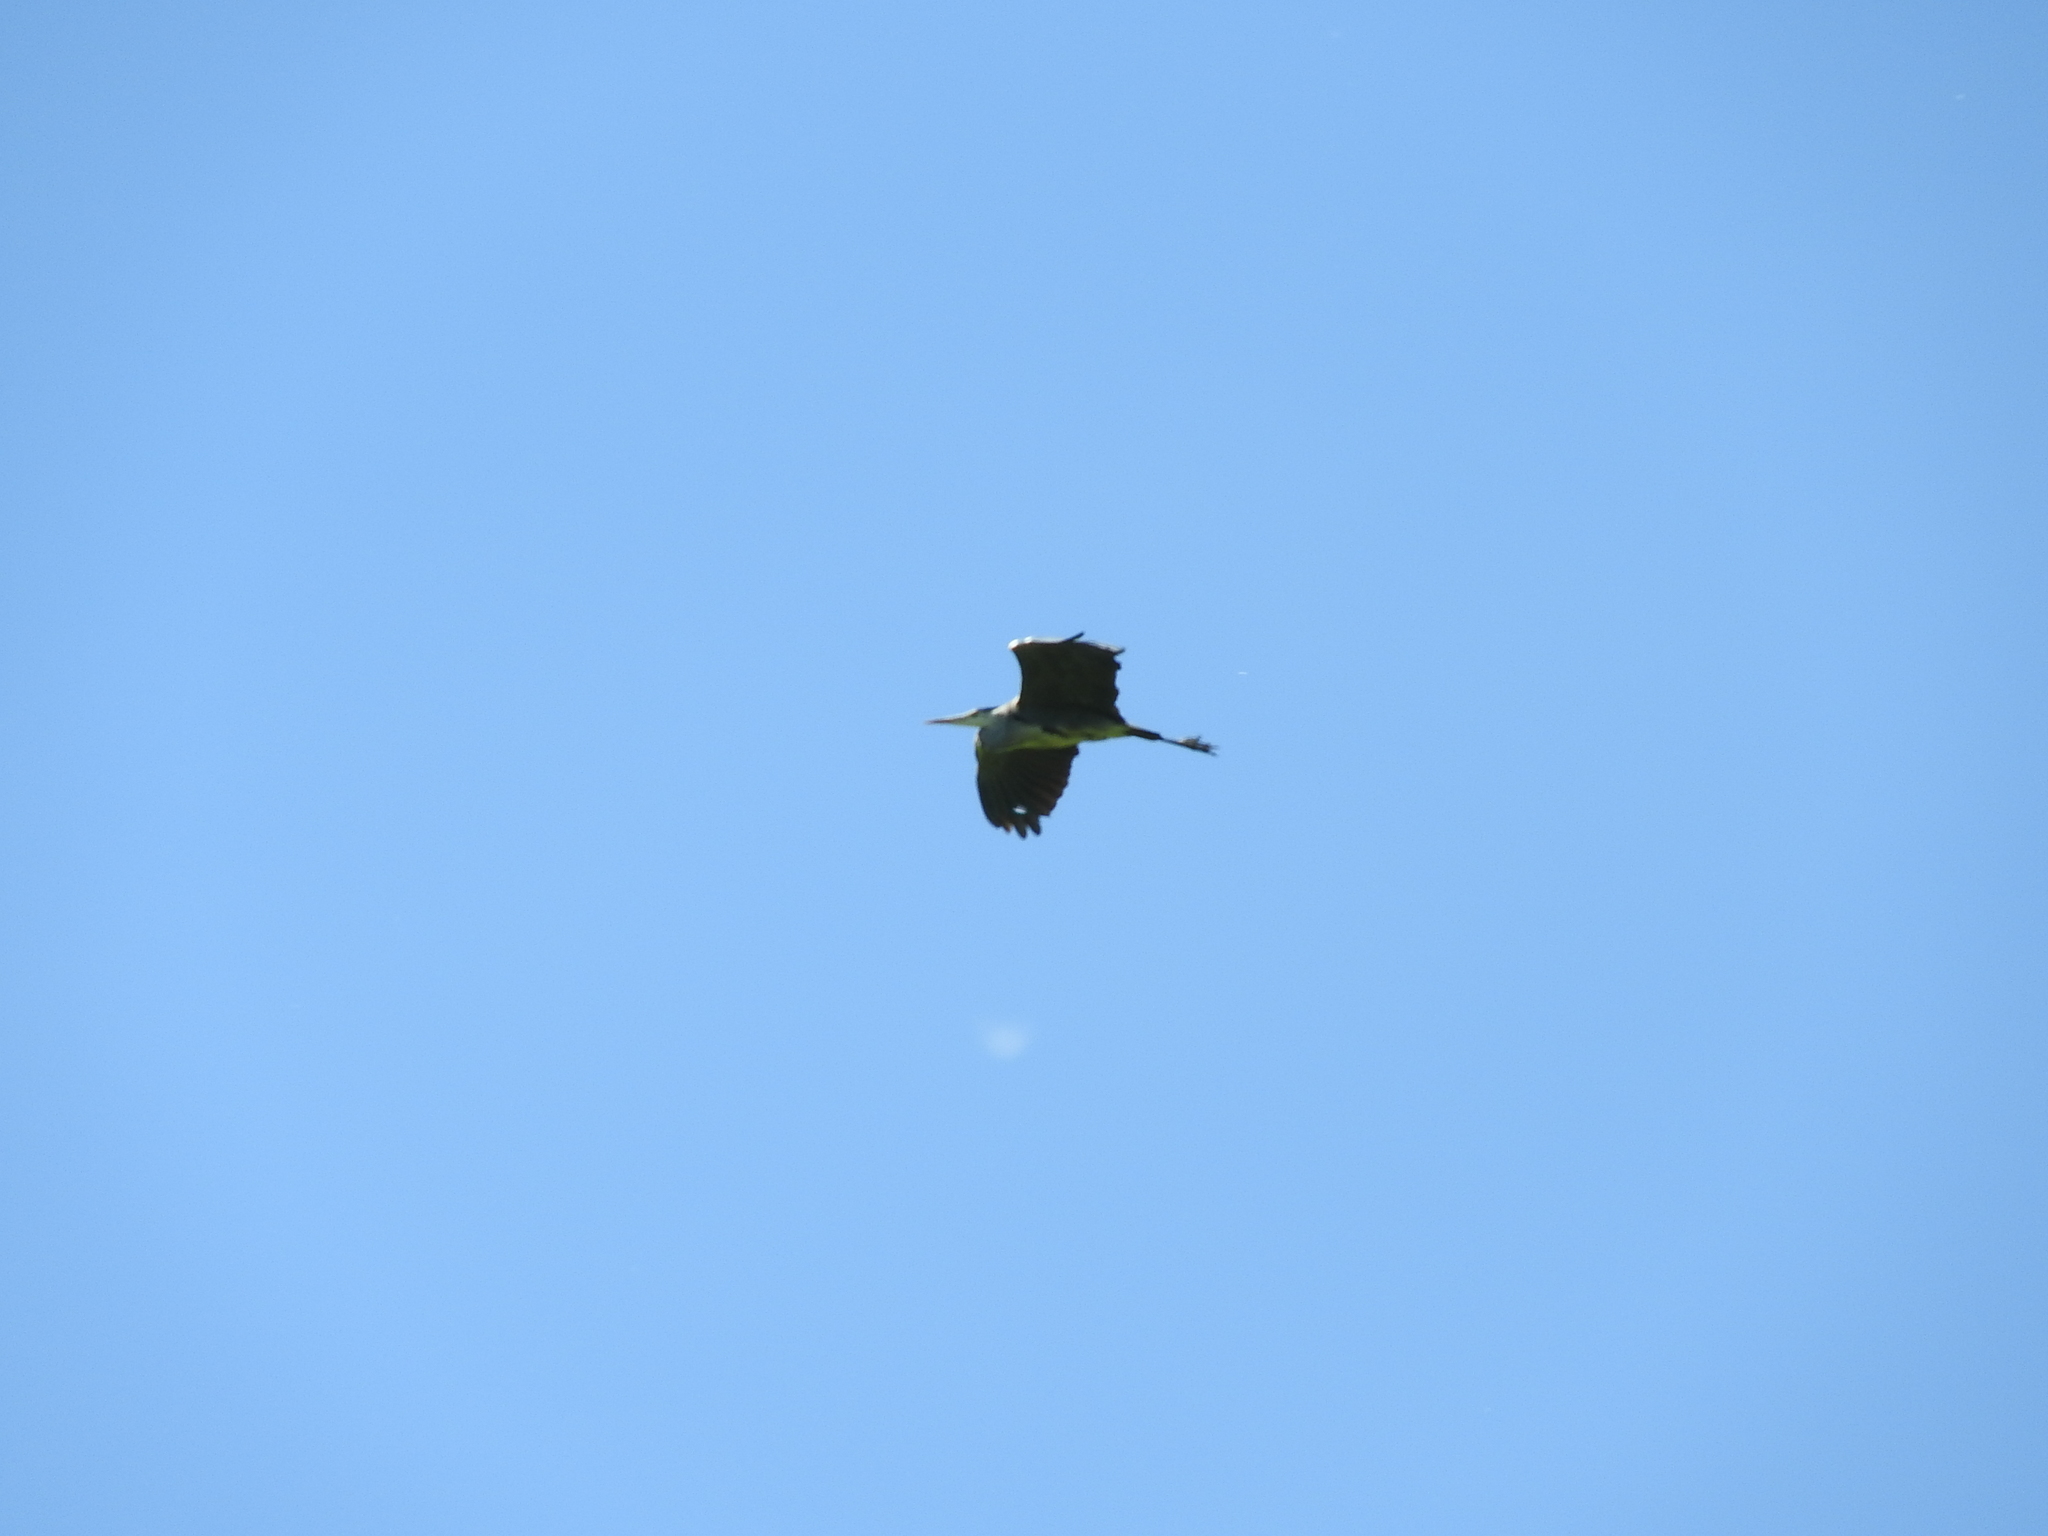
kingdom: Animalia
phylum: Chordata
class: Aves
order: Pelecaniformes
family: Ardeidae
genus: Ardea
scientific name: Ardea cinerea
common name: Grey heron
